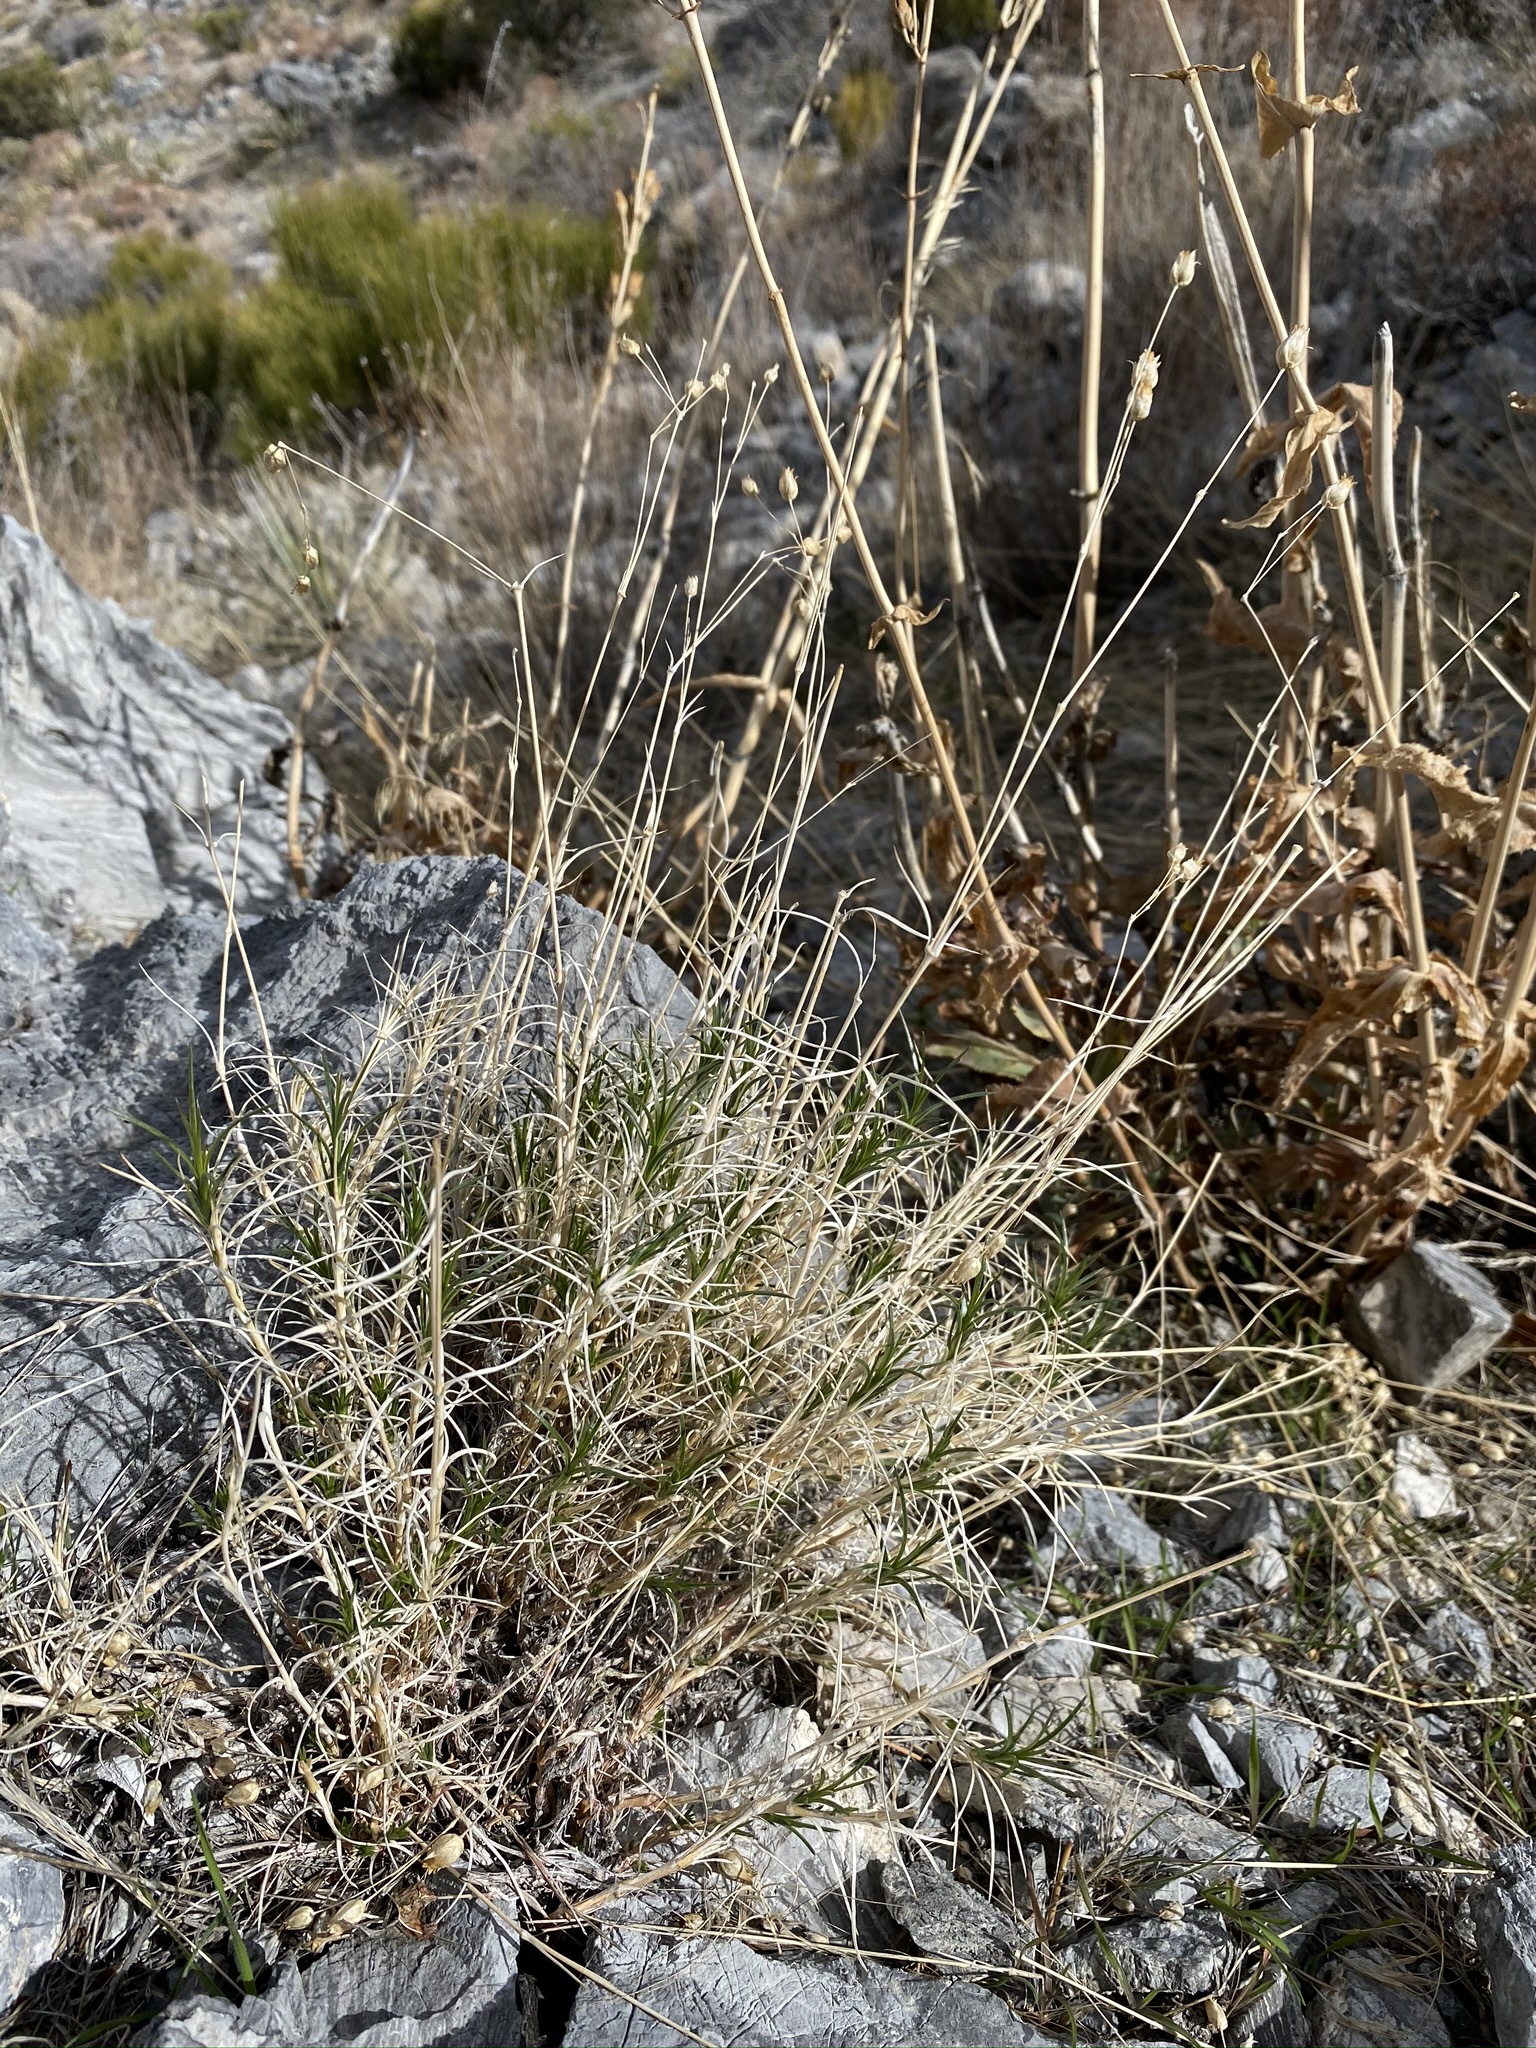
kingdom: Plantae
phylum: Tracheophyta
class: Magnoliopsida
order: Caryophyllales
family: Caryophyllaceae
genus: Eremogone
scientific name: Eremogone macradenia
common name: Mohave sandwort
